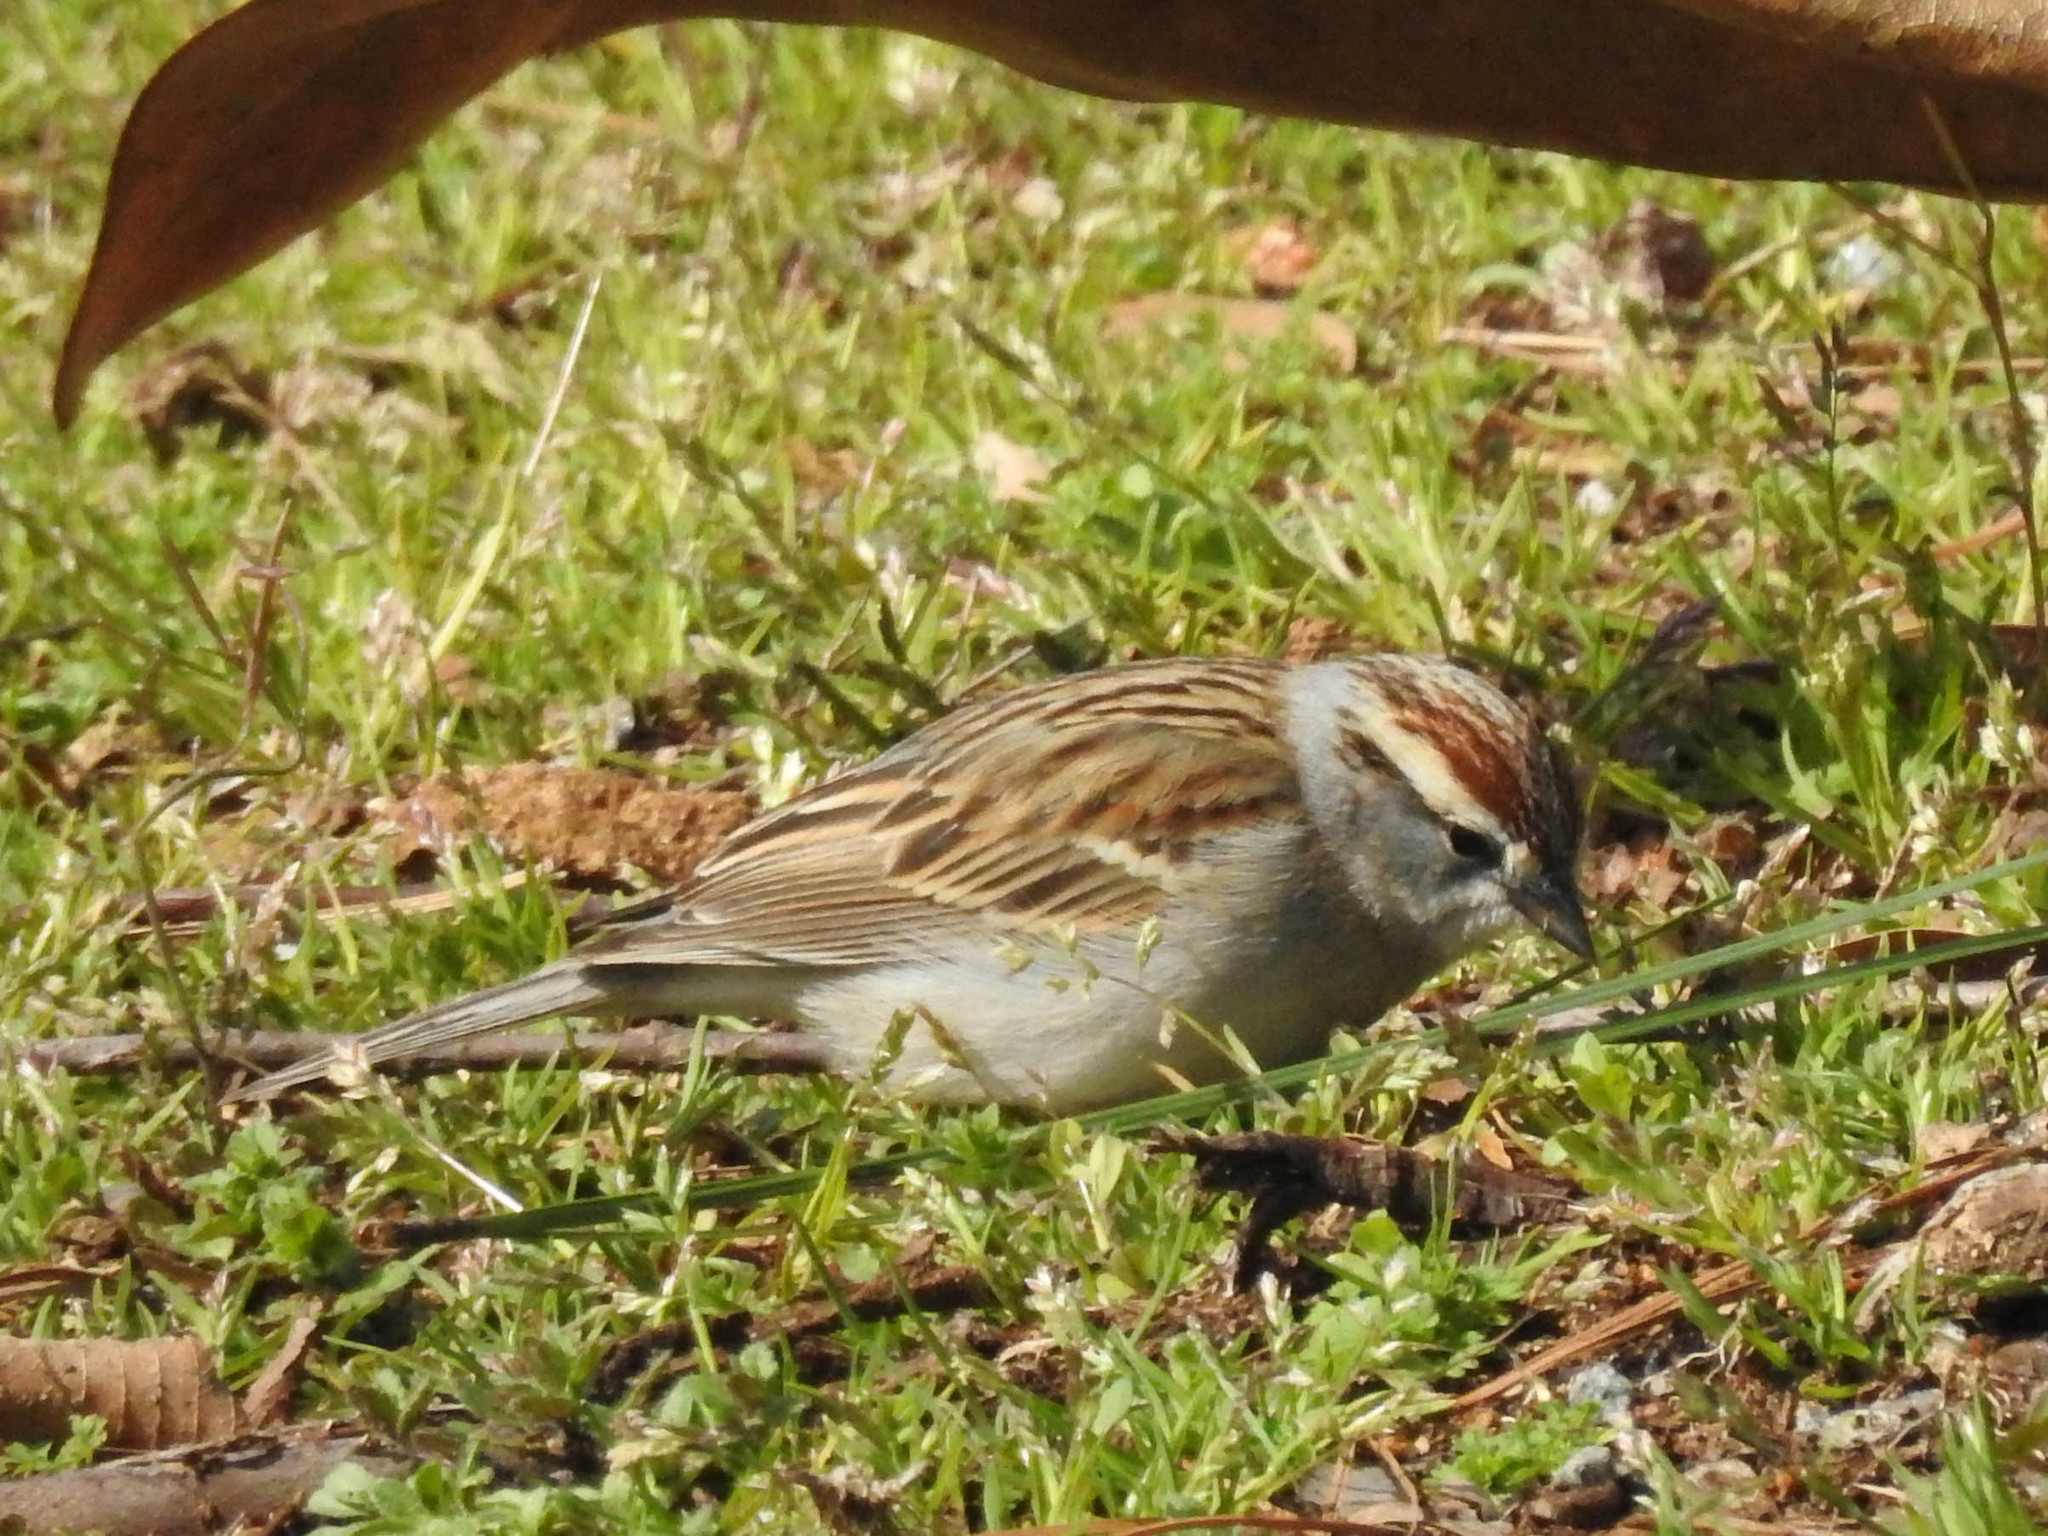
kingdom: Animalia
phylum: Chordata
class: Aves
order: Passeriformes
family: Passerellidae
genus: Spizella
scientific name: Spizella passerina
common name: Chipping sparrow
